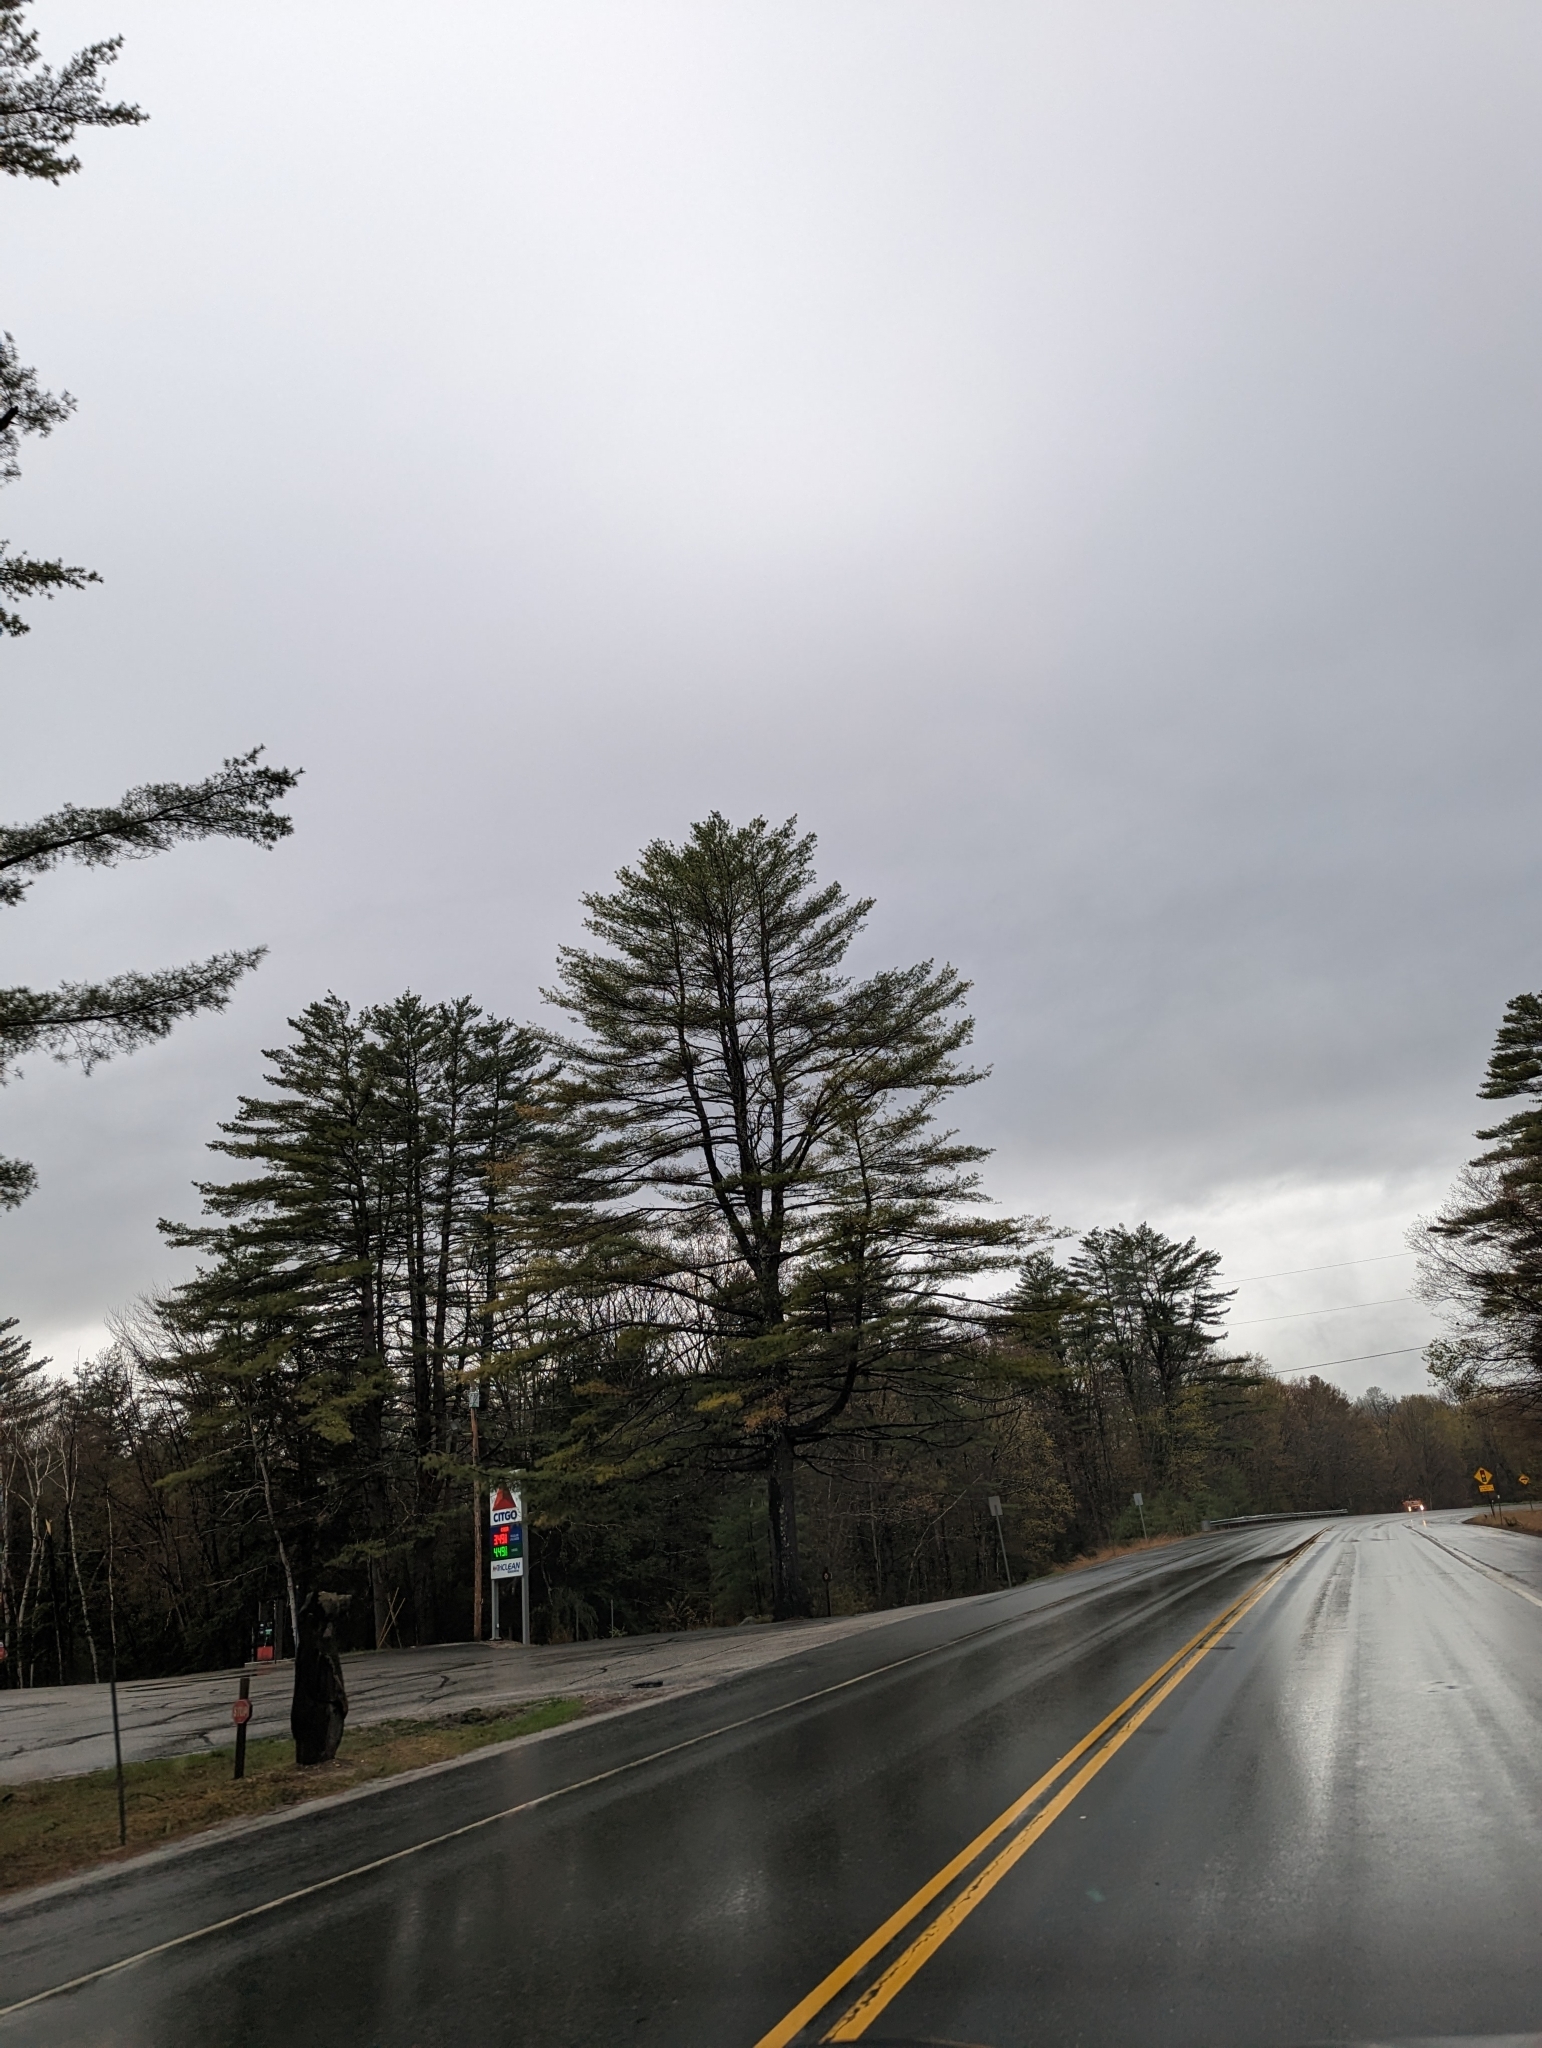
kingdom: Plantae
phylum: Tracheophyta
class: Pinopsida
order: Pinales
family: Pinaceae
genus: Pinus
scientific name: Pinus strobus
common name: Weymouth pine
